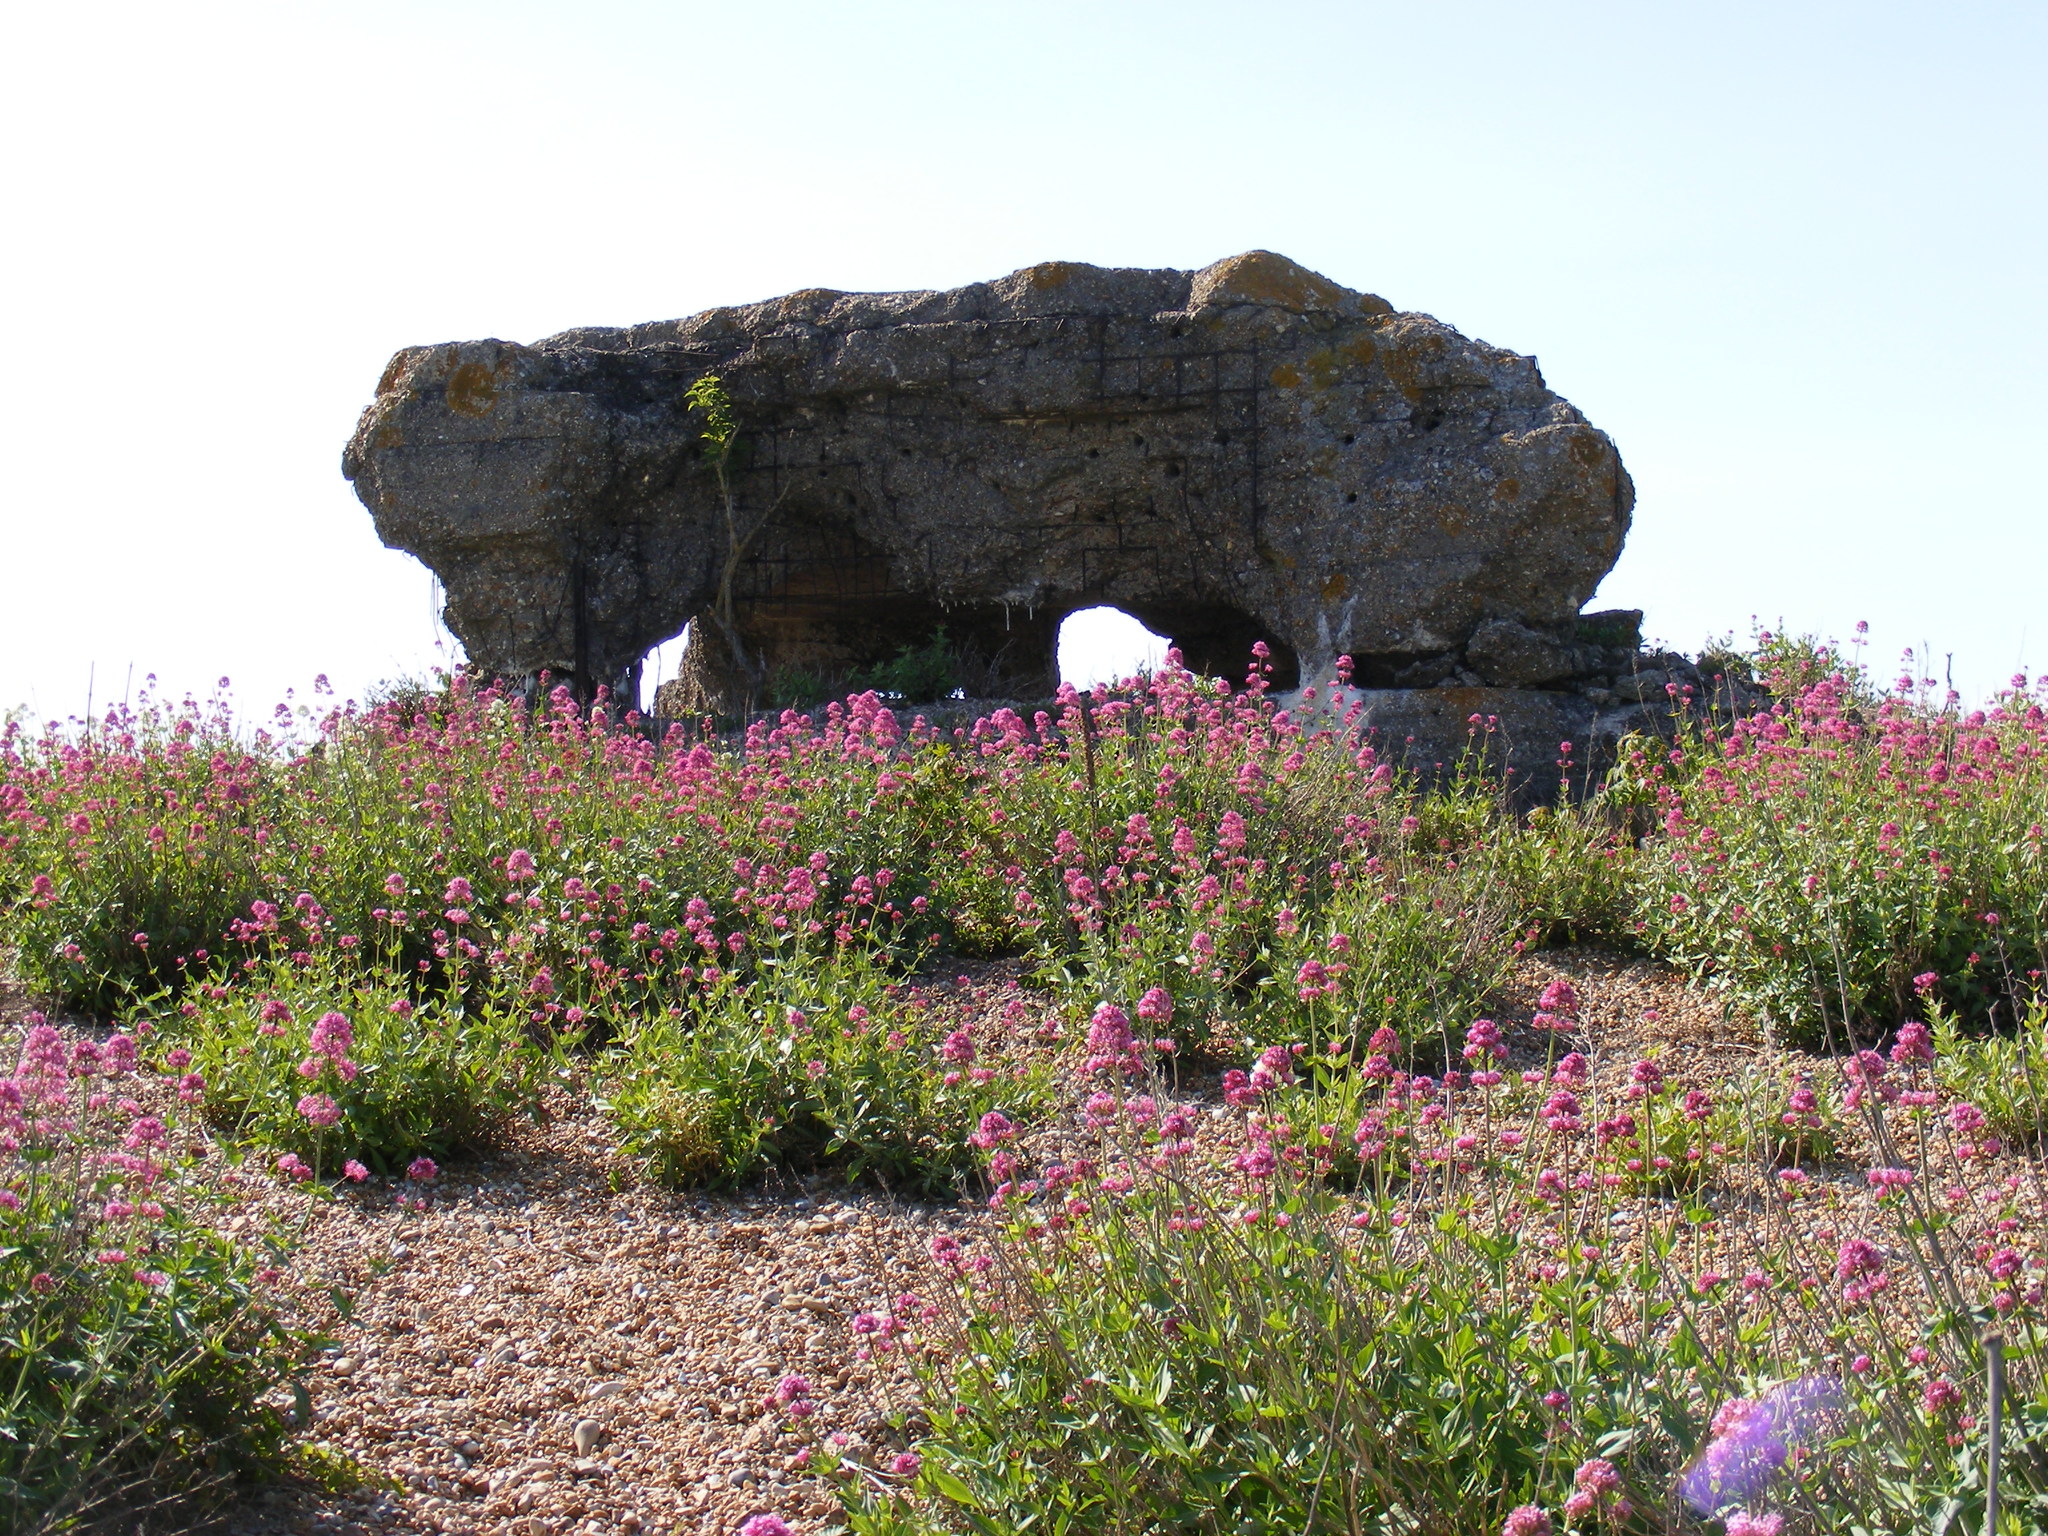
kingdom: Plantae
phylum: Tracheophyta
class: Magnoliopsida
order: Dipsacales
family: Caprifoliaceae
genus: Centranthus
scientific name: Centranthus ruber
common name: Red valerian
